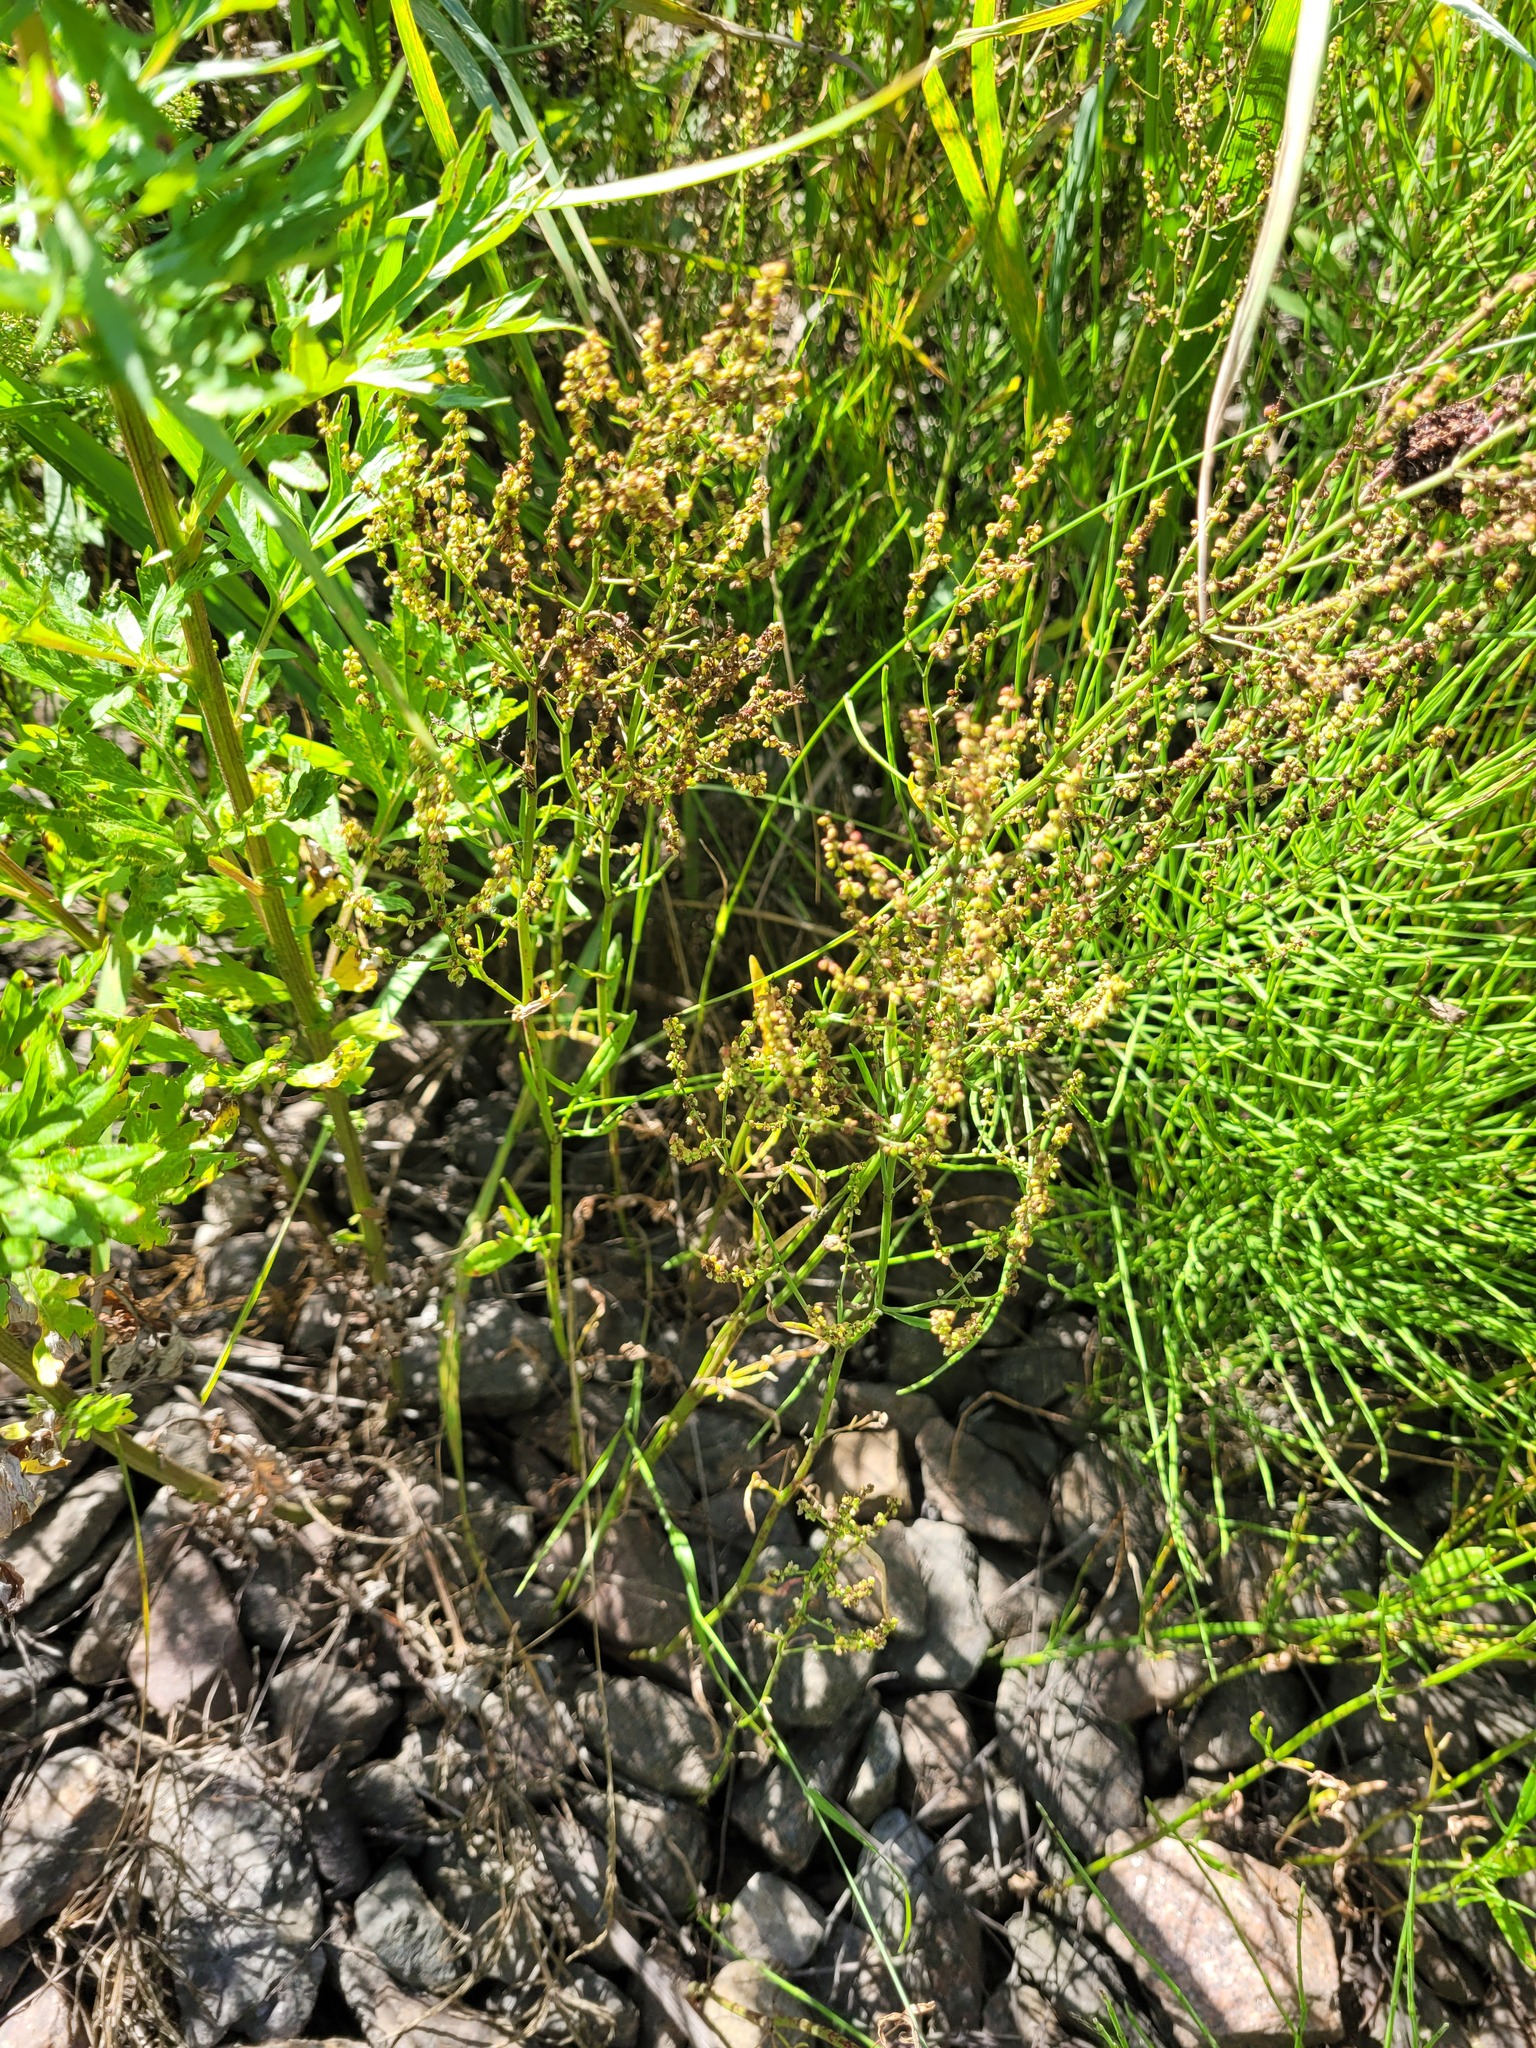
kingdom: Plantae
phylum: Tracheophyta
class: Magnoliopsida
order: Caryophyllales
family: Polygonaceae
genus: Rumex
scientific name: Rumex acetosella
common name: Common sheep sorrel
